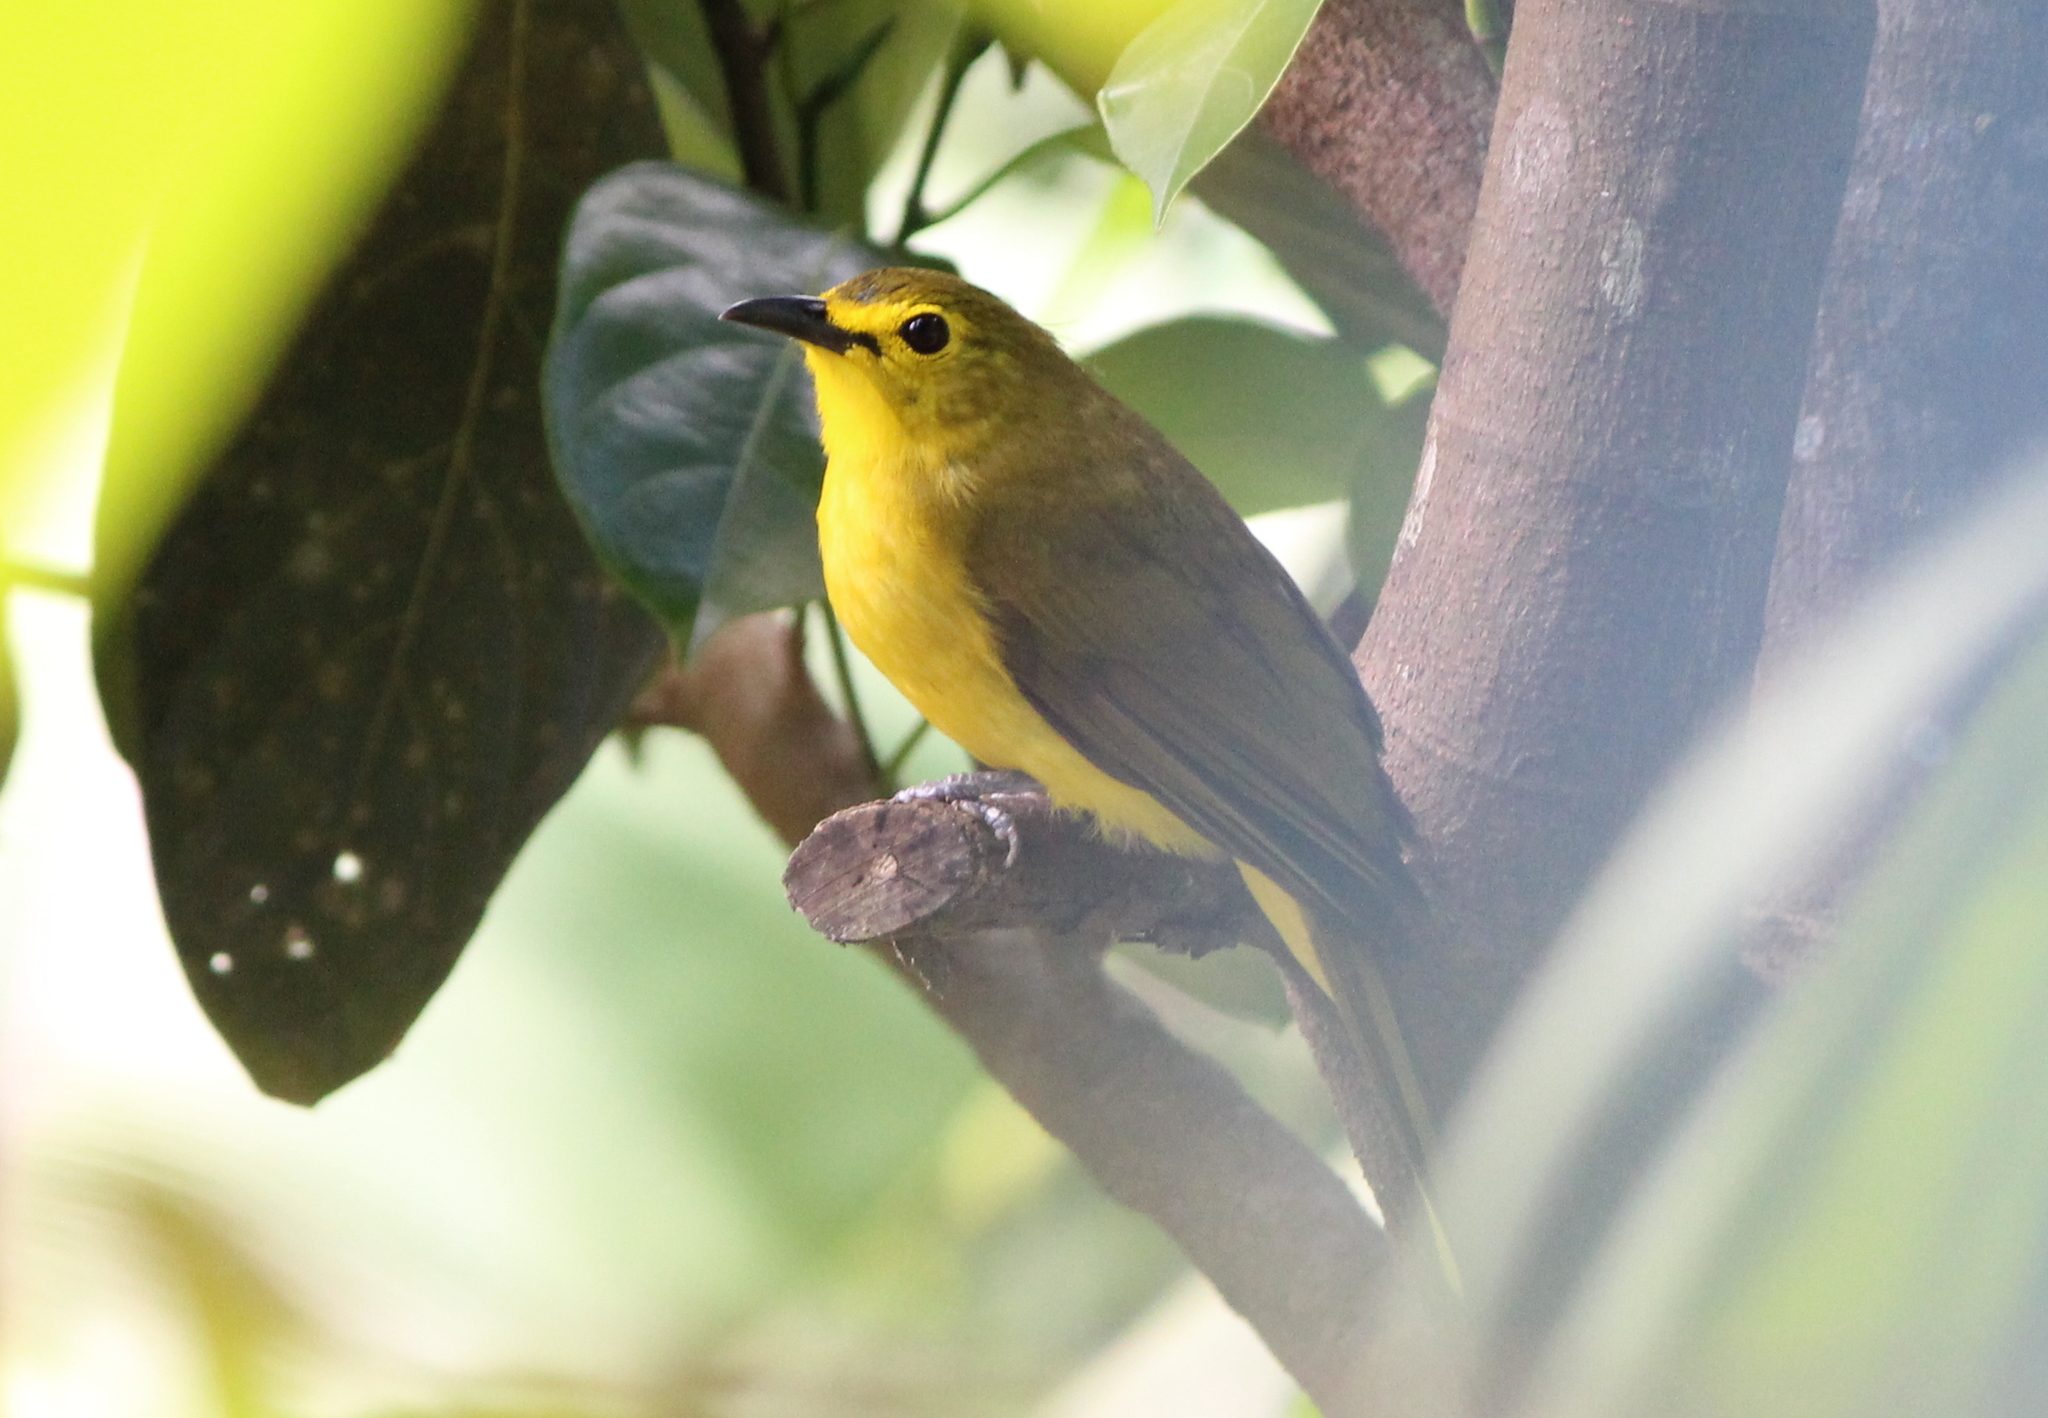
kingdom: Animalia
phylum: Chordata
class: Aves
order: Passeriformes
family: Pycnonotidae
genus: Acritillas
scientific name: Acritillas indica
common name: Yellow-browed bulbul
